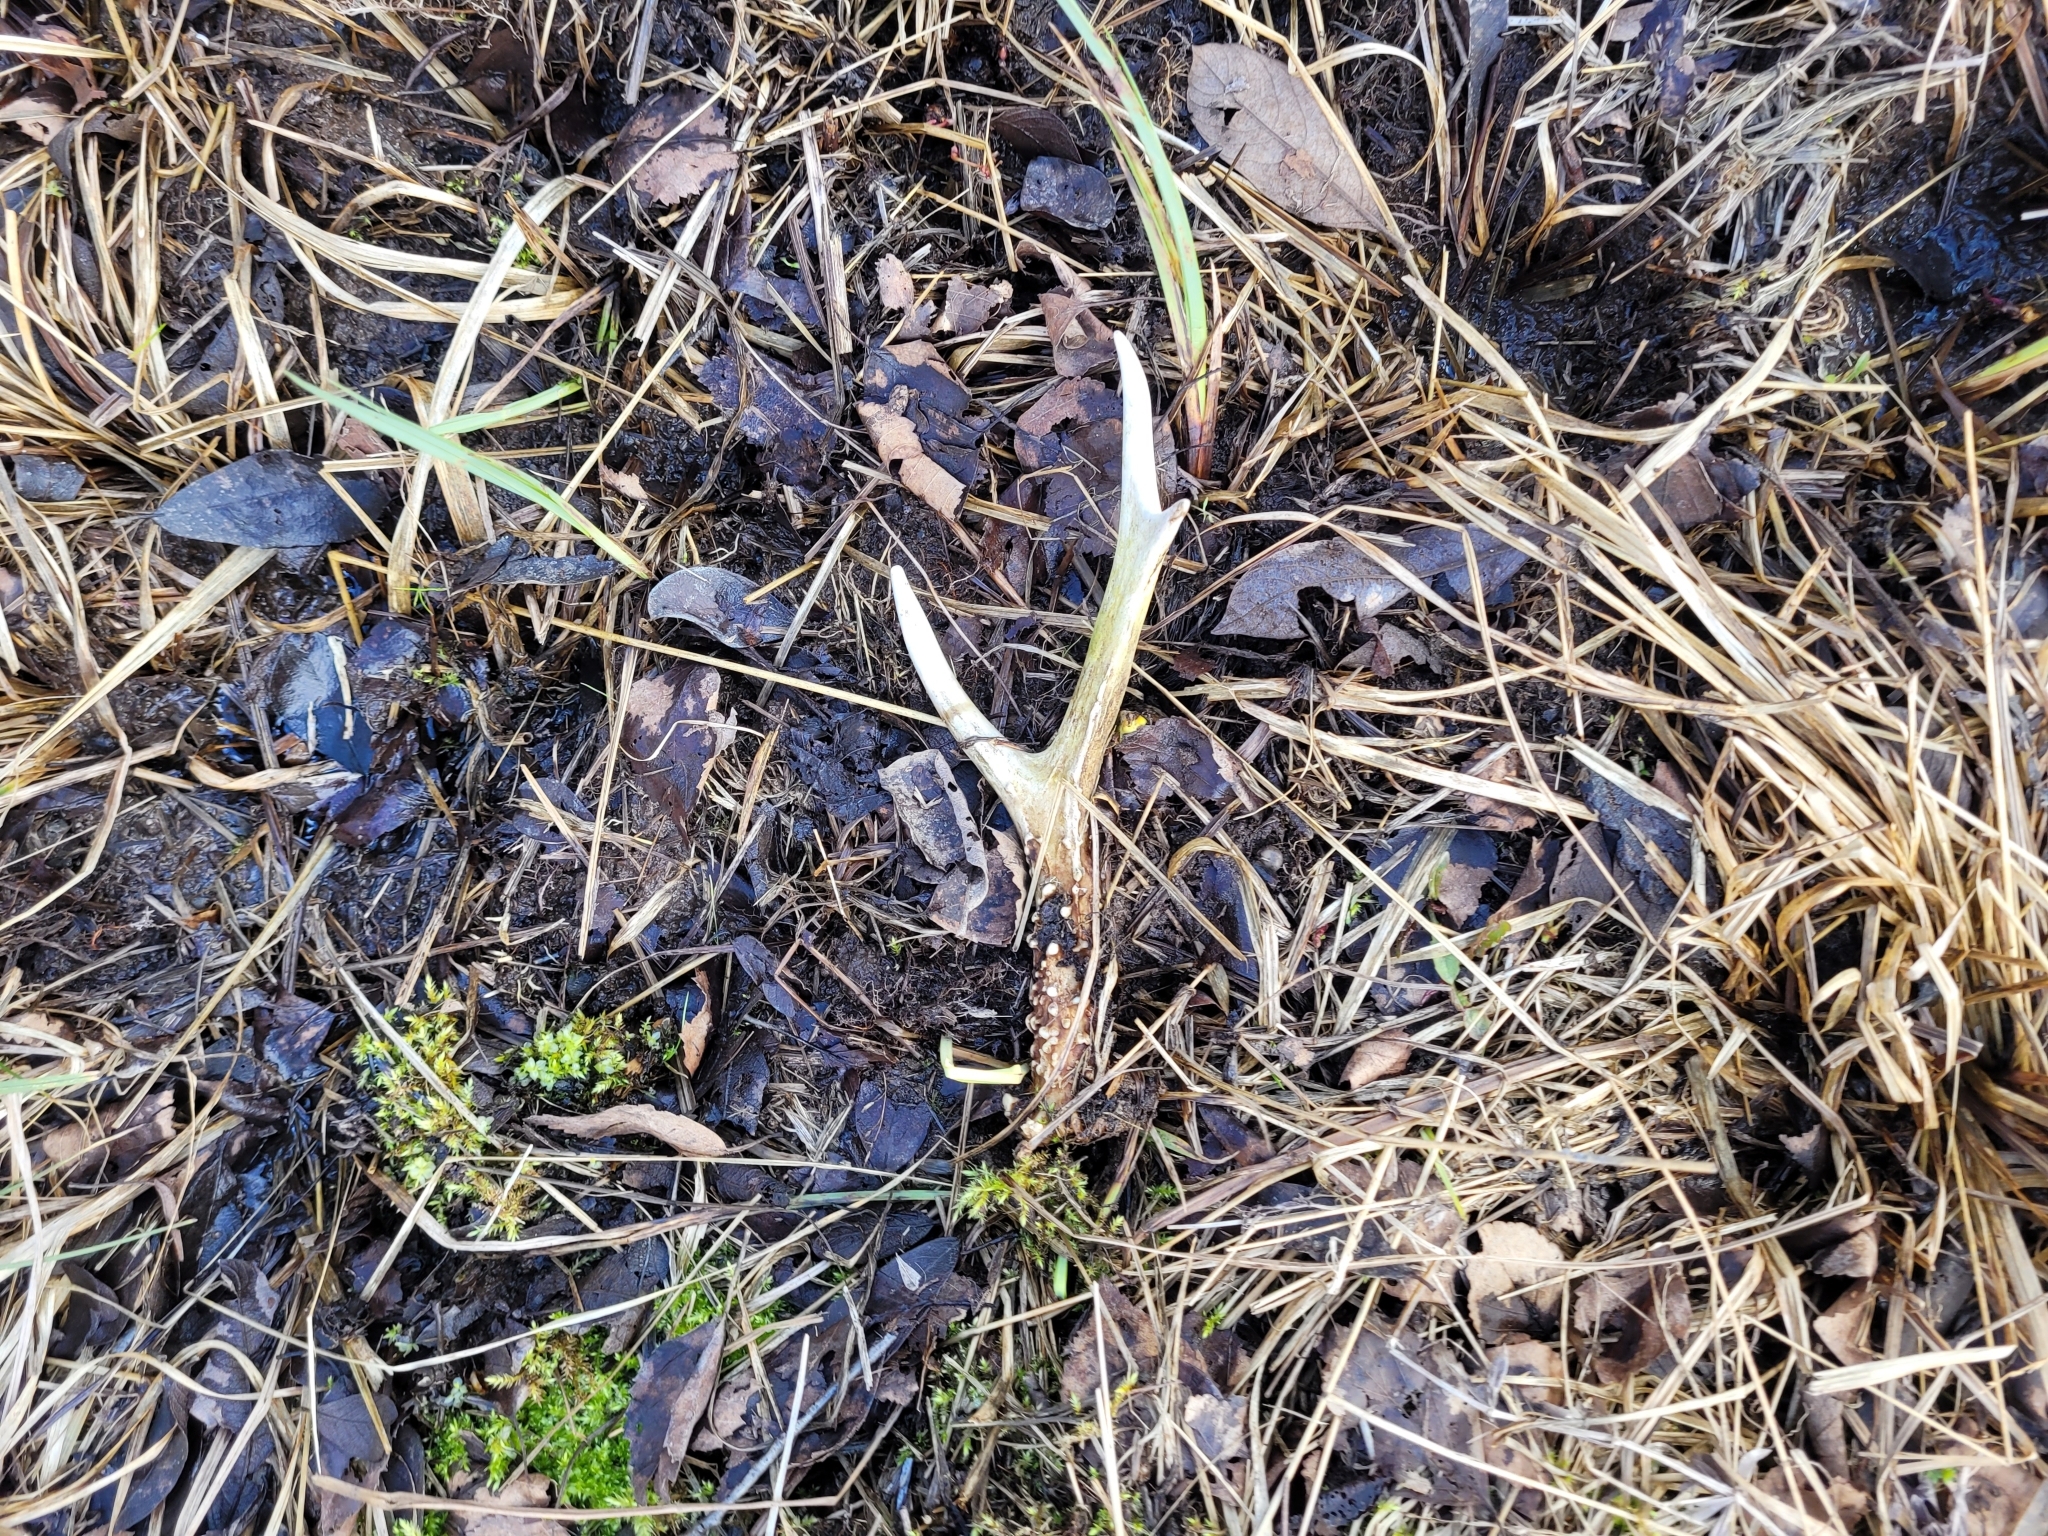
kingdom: Animalia
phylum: Chordata
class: Mammalia
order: Artiodactyla
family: Cervidae
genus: Capreolus
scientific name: Capreolus capreolus
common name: Western roe deer
